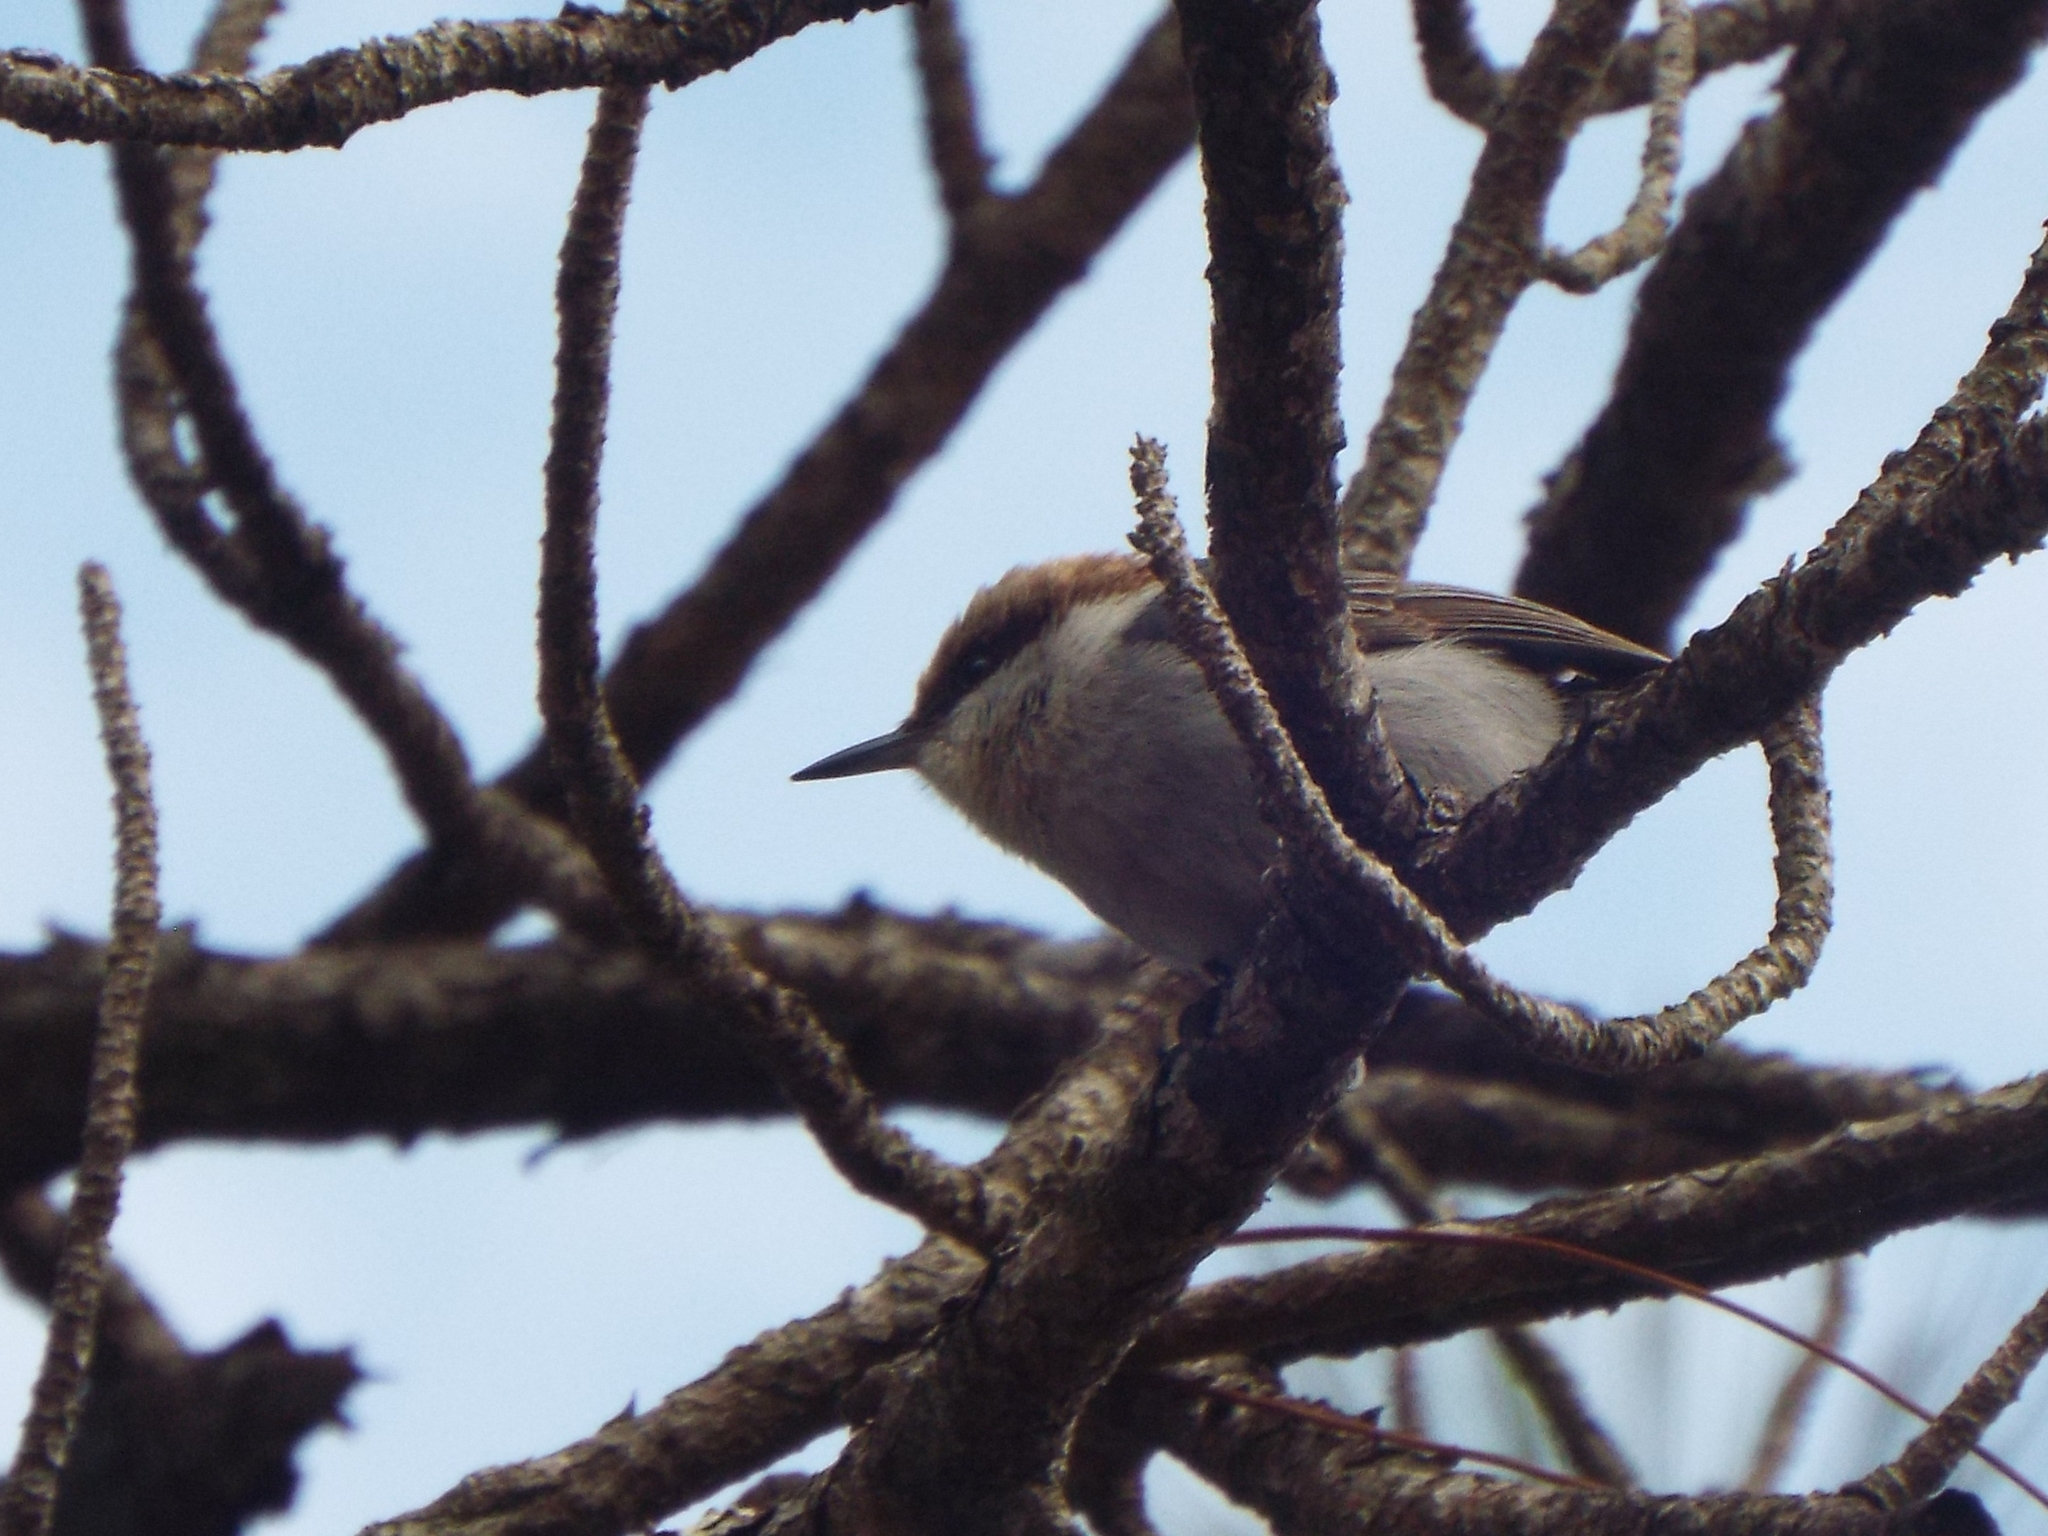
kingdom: Animalia
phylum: Chordata
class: Aves
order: Passeriformes
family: Sittidae
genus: Sitta
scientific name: Sitta pusilla
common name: Brown-headed nuthatch
